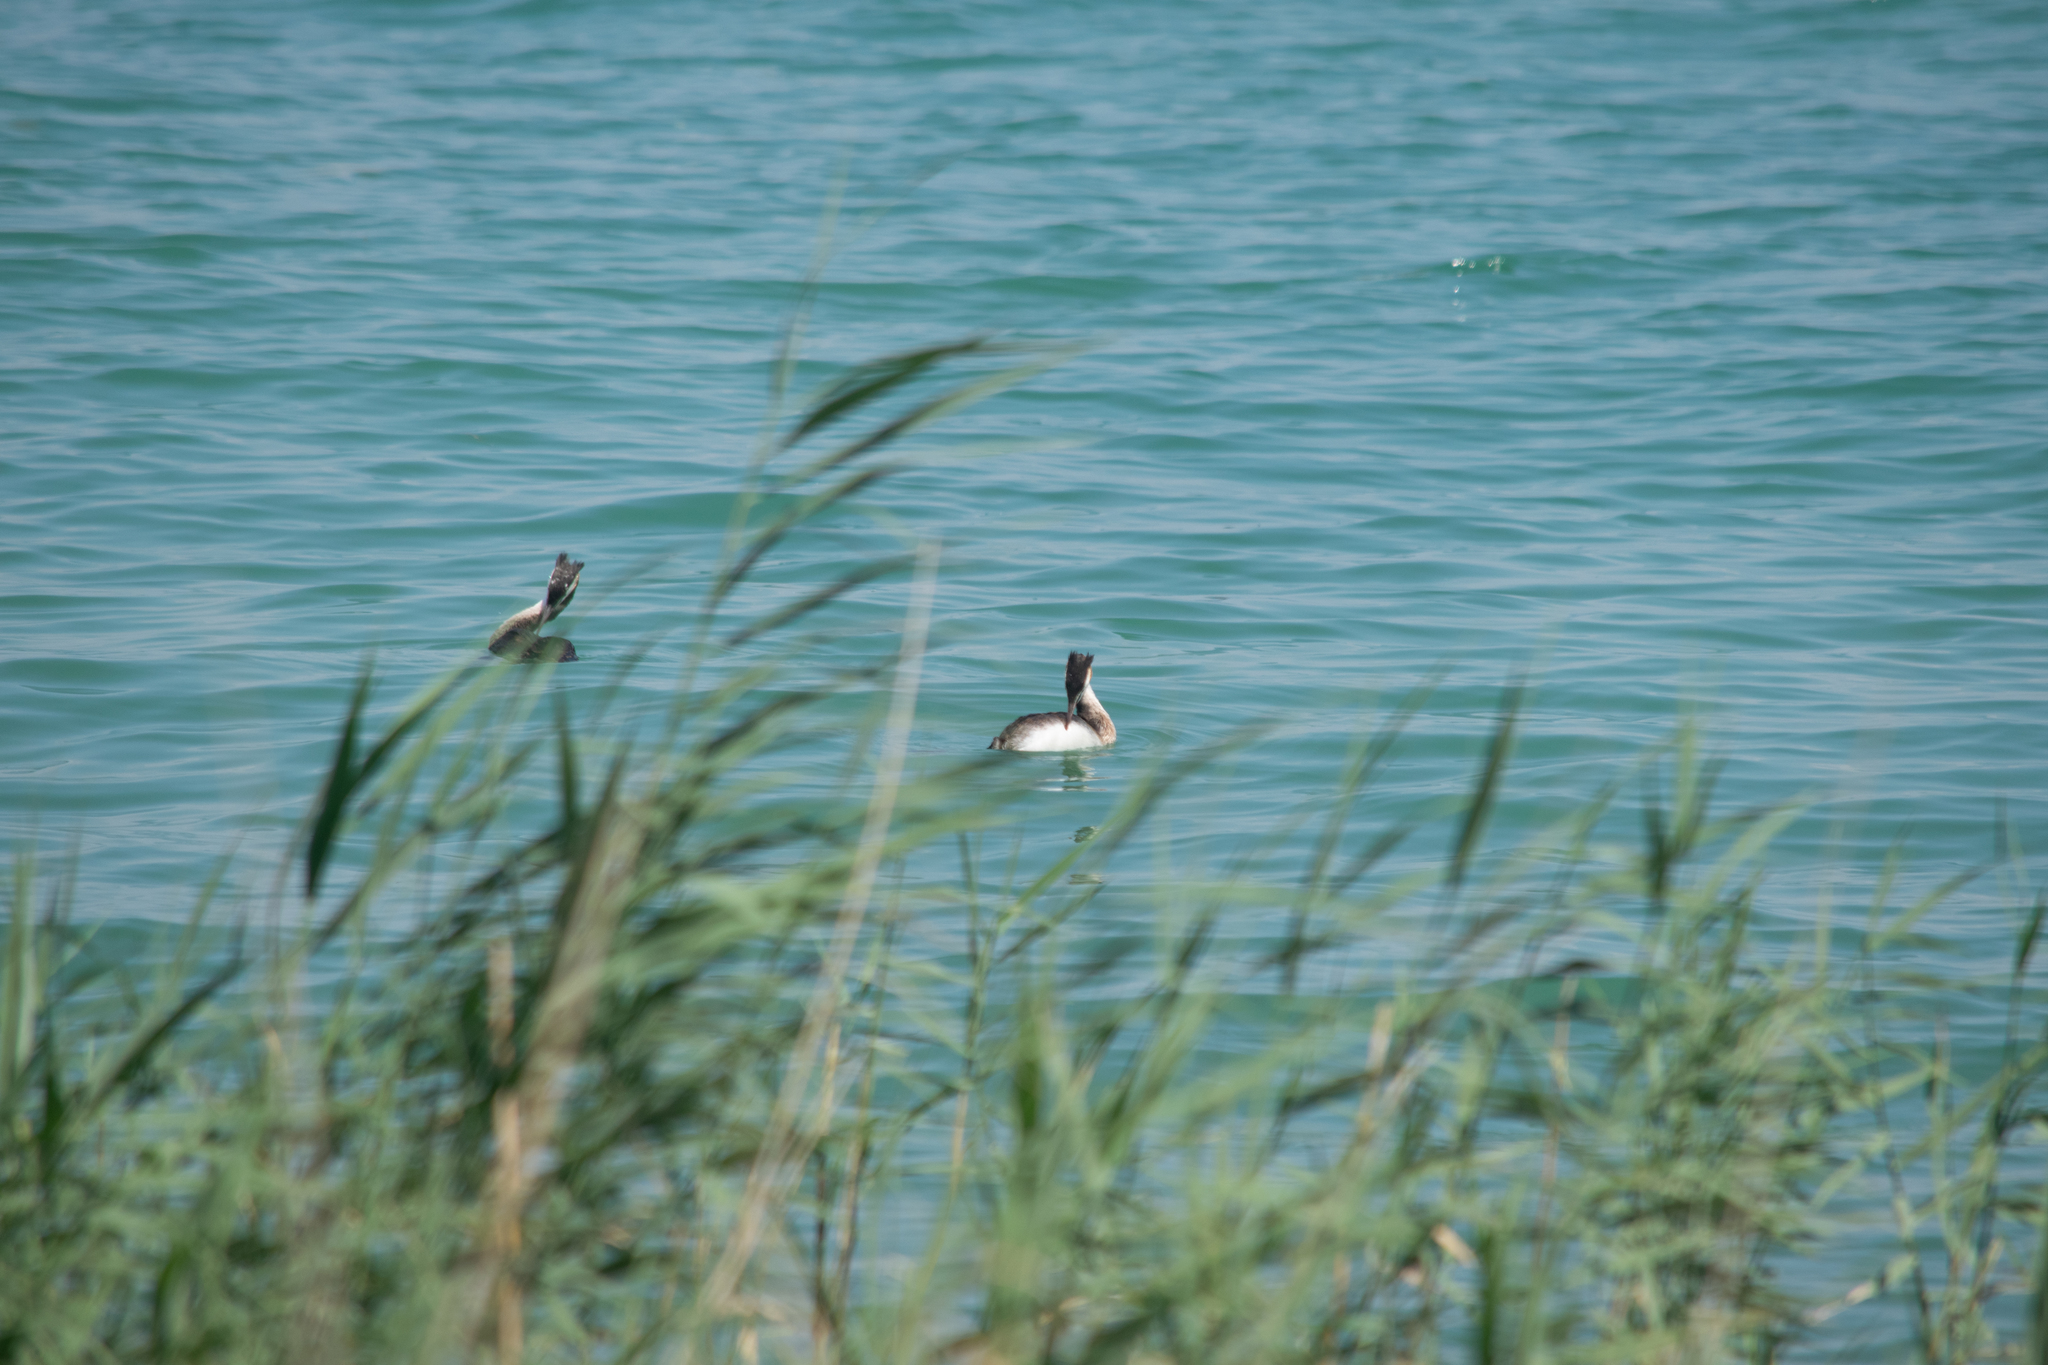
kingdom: Animalia
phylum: Chordata
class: Aves
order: Podicipediformes
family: Podicipedidae
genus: Podiceps
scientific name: Podiceps cristatus
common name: Great crested grebe
